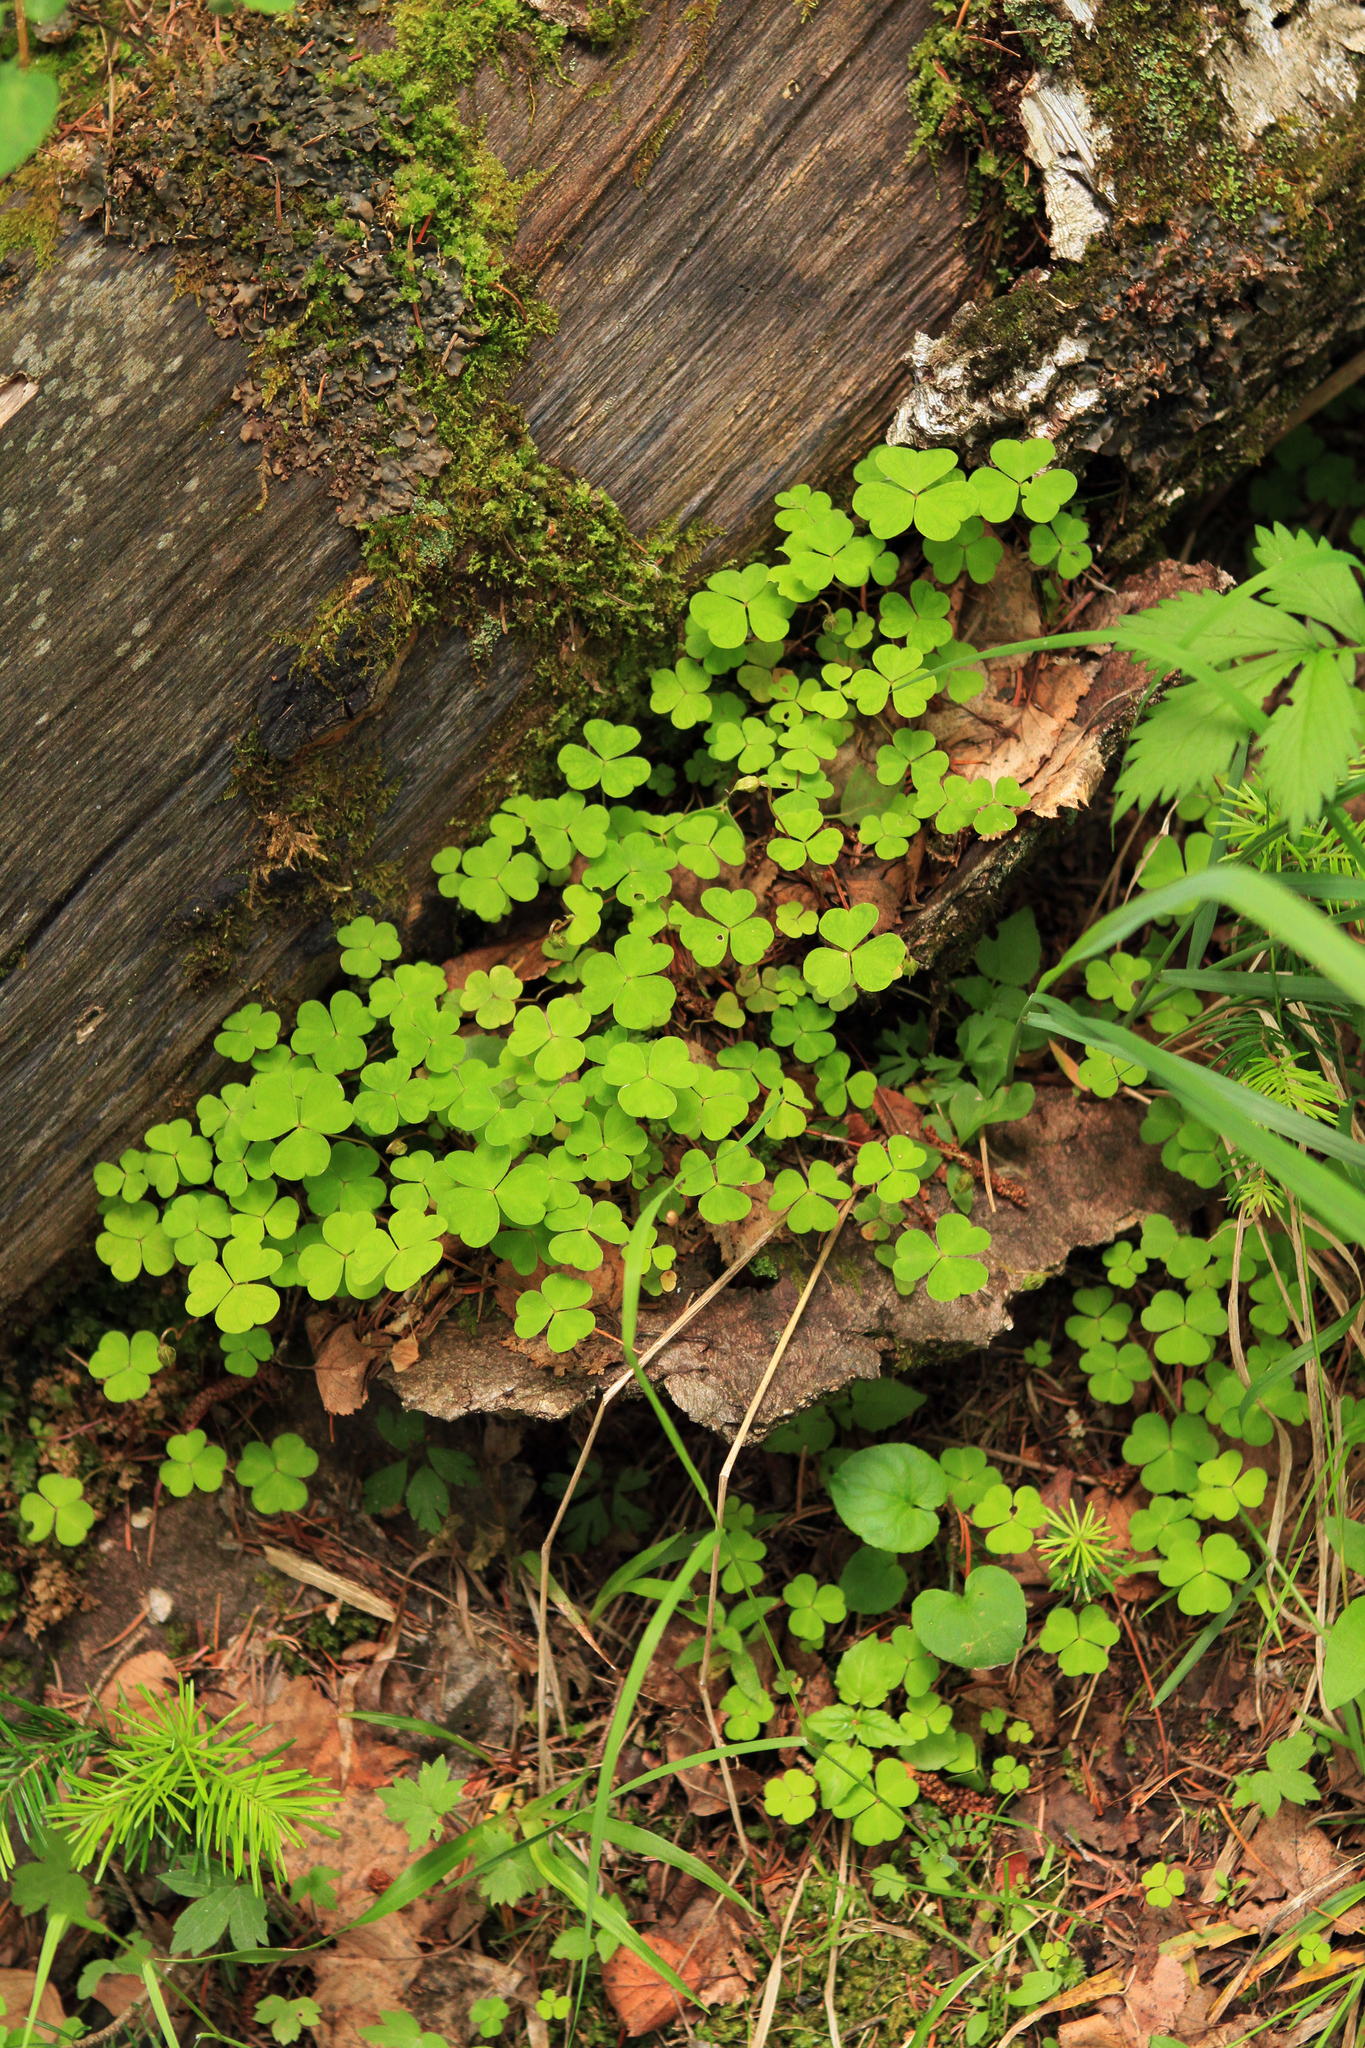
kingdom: Plantae
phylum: Tracheophyta
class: Magnoliopsida
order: Oxalidales
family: Oxalidaceae
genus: Oxalis
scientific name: Oxalis acetosella
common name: Wood-sorrel
